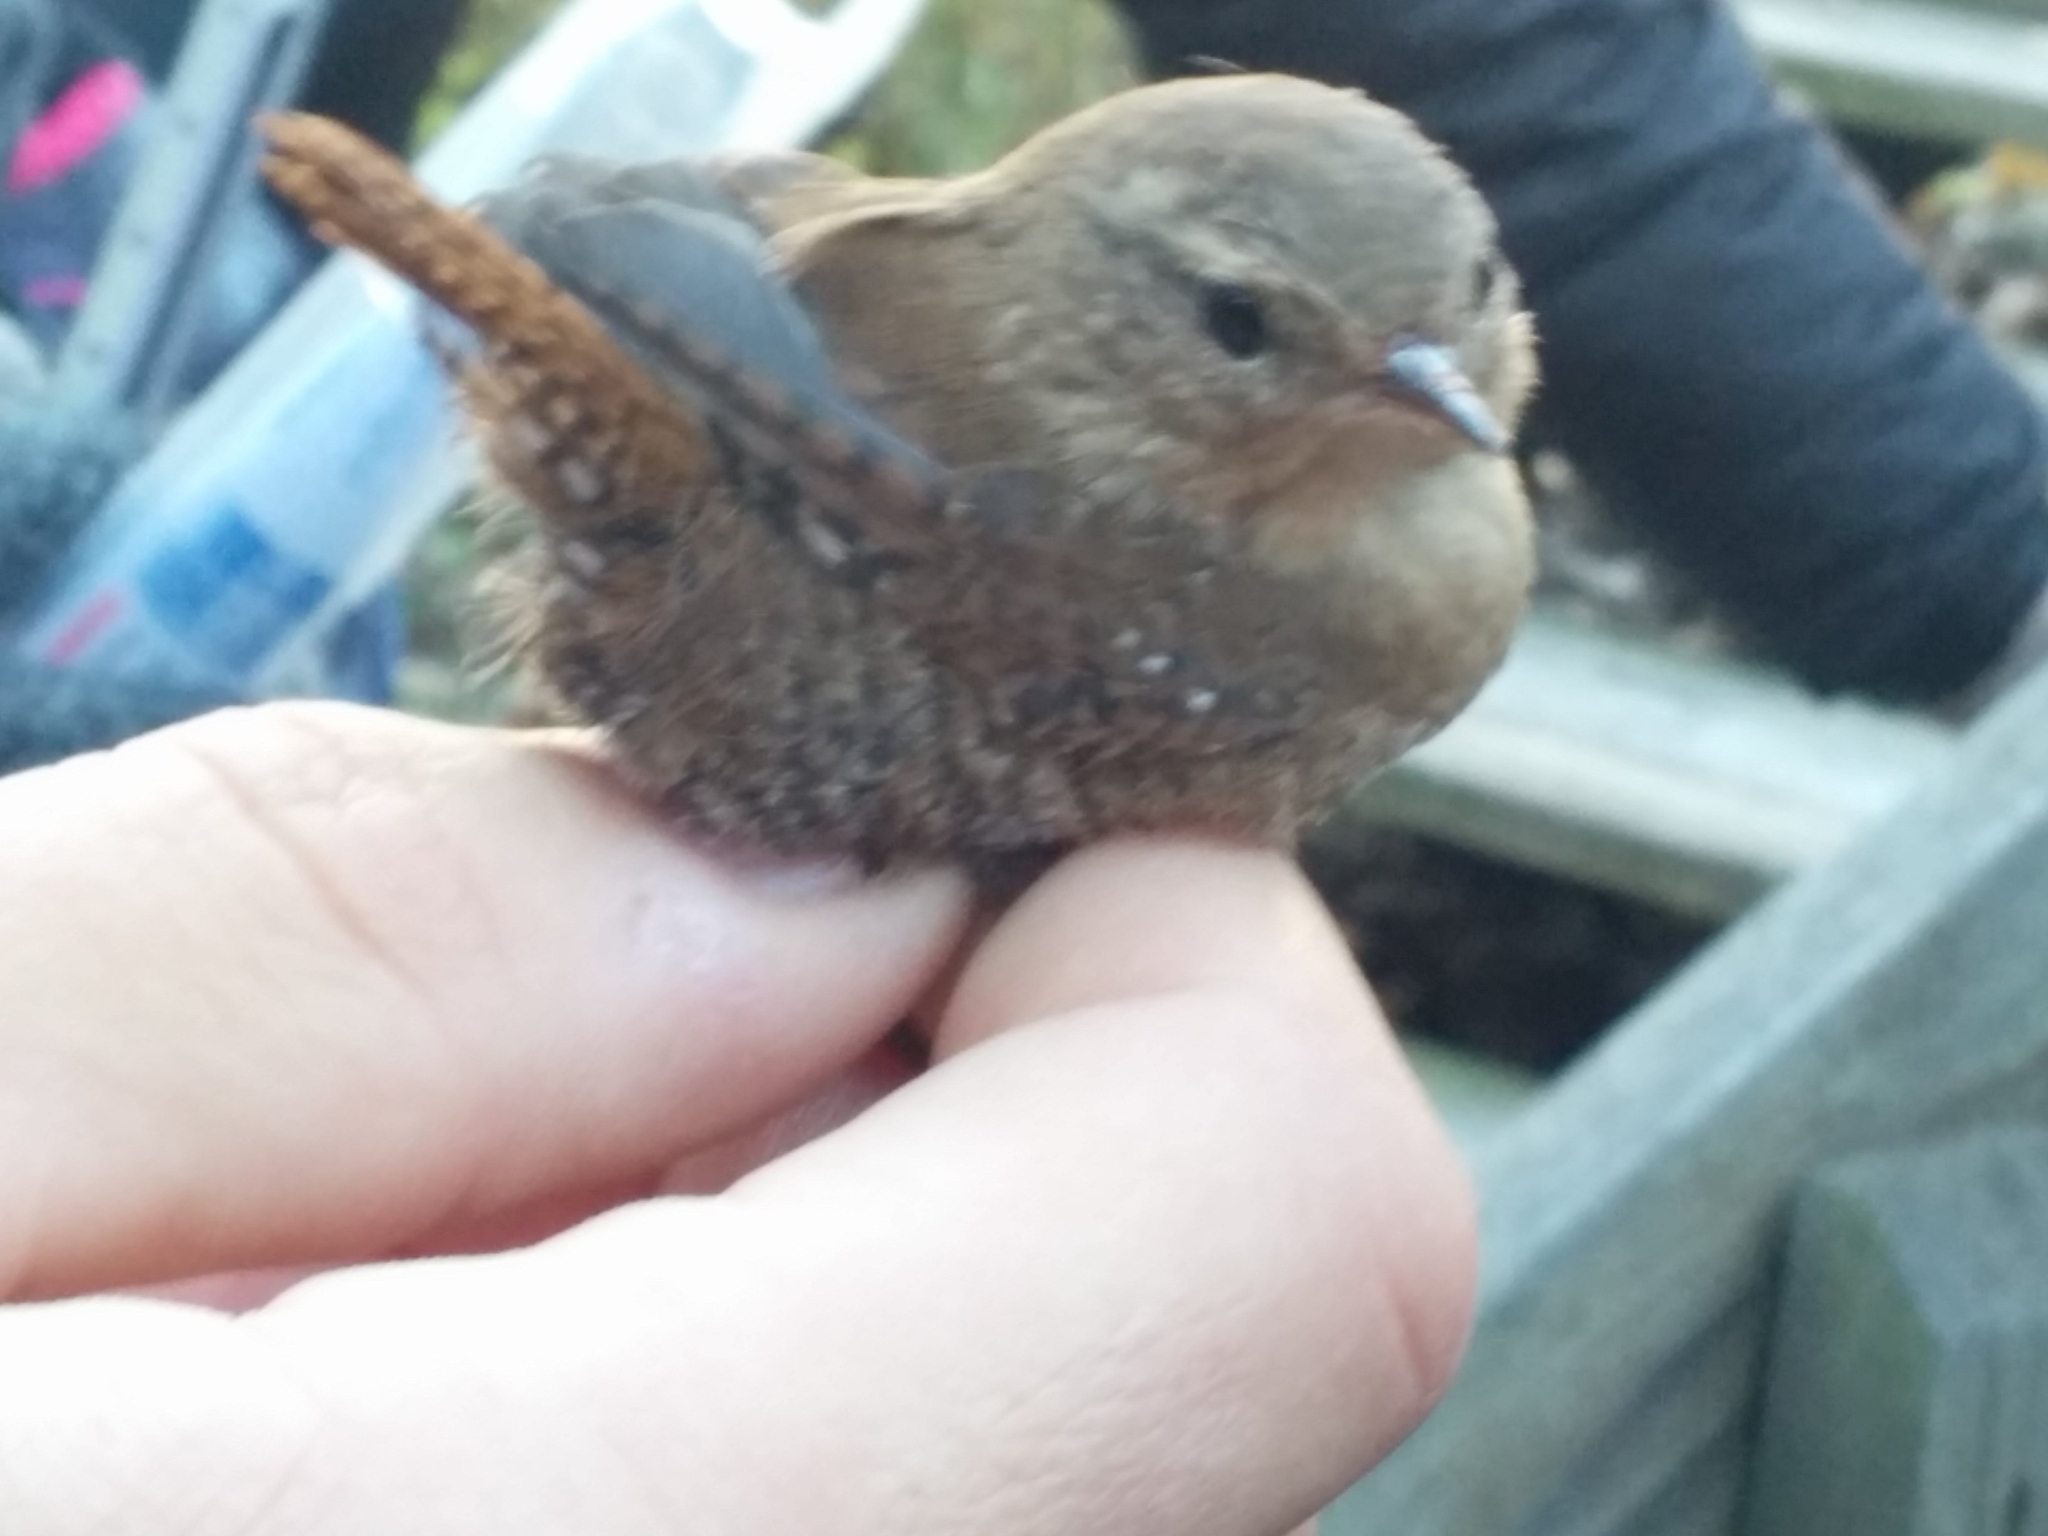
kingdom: Animalia
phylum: Chordata
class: Aves
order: Passeriformes
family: Troglodytidae
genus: Troglodytes
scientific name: Troglodytes hiemalis
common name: Winter wren
